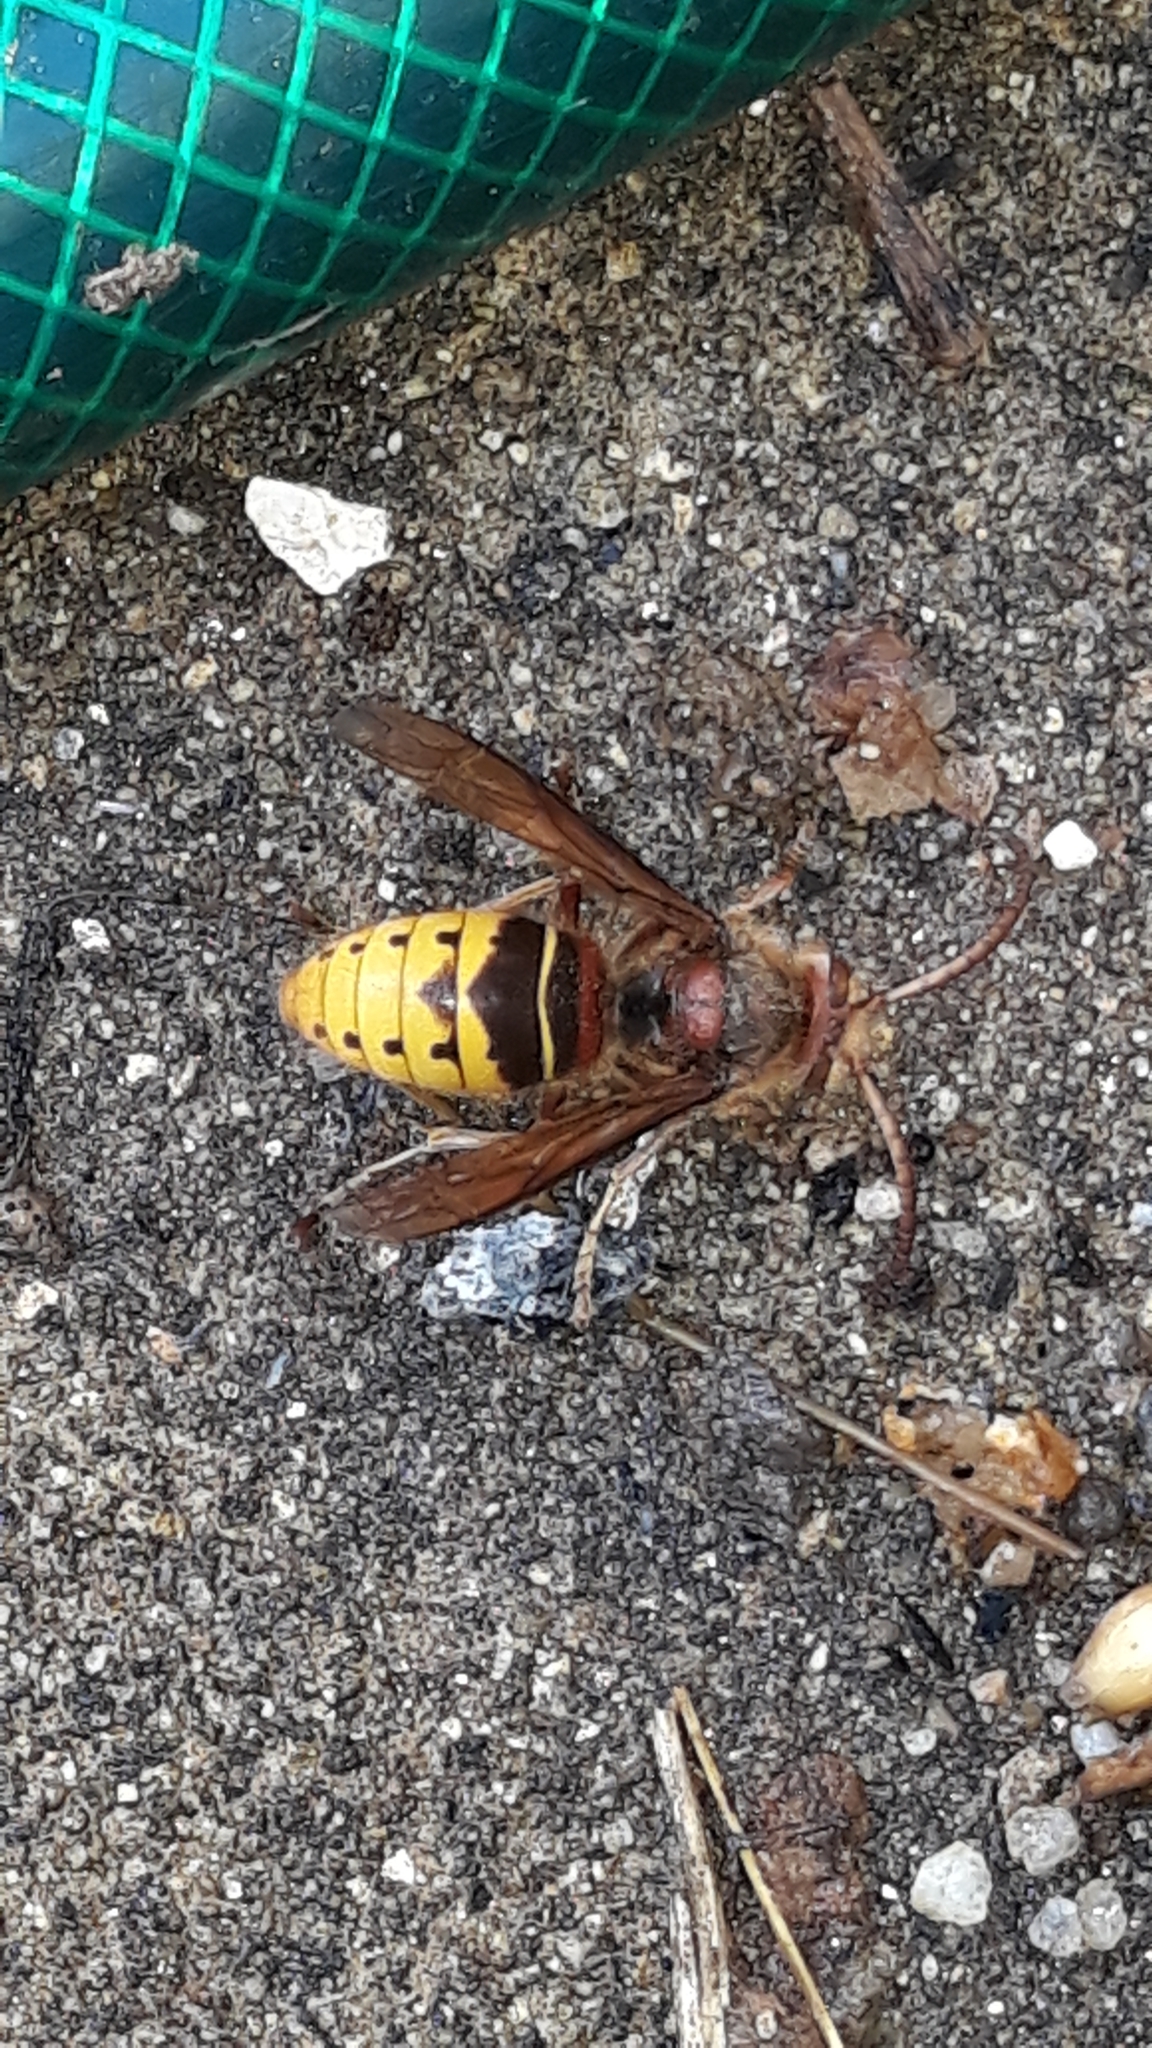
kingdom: Animalia
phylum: Arthropoda
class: Insecta
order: Hymenoptera
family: Vespidae
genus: Vespa
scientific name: Vespa crabro
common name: Hornet
